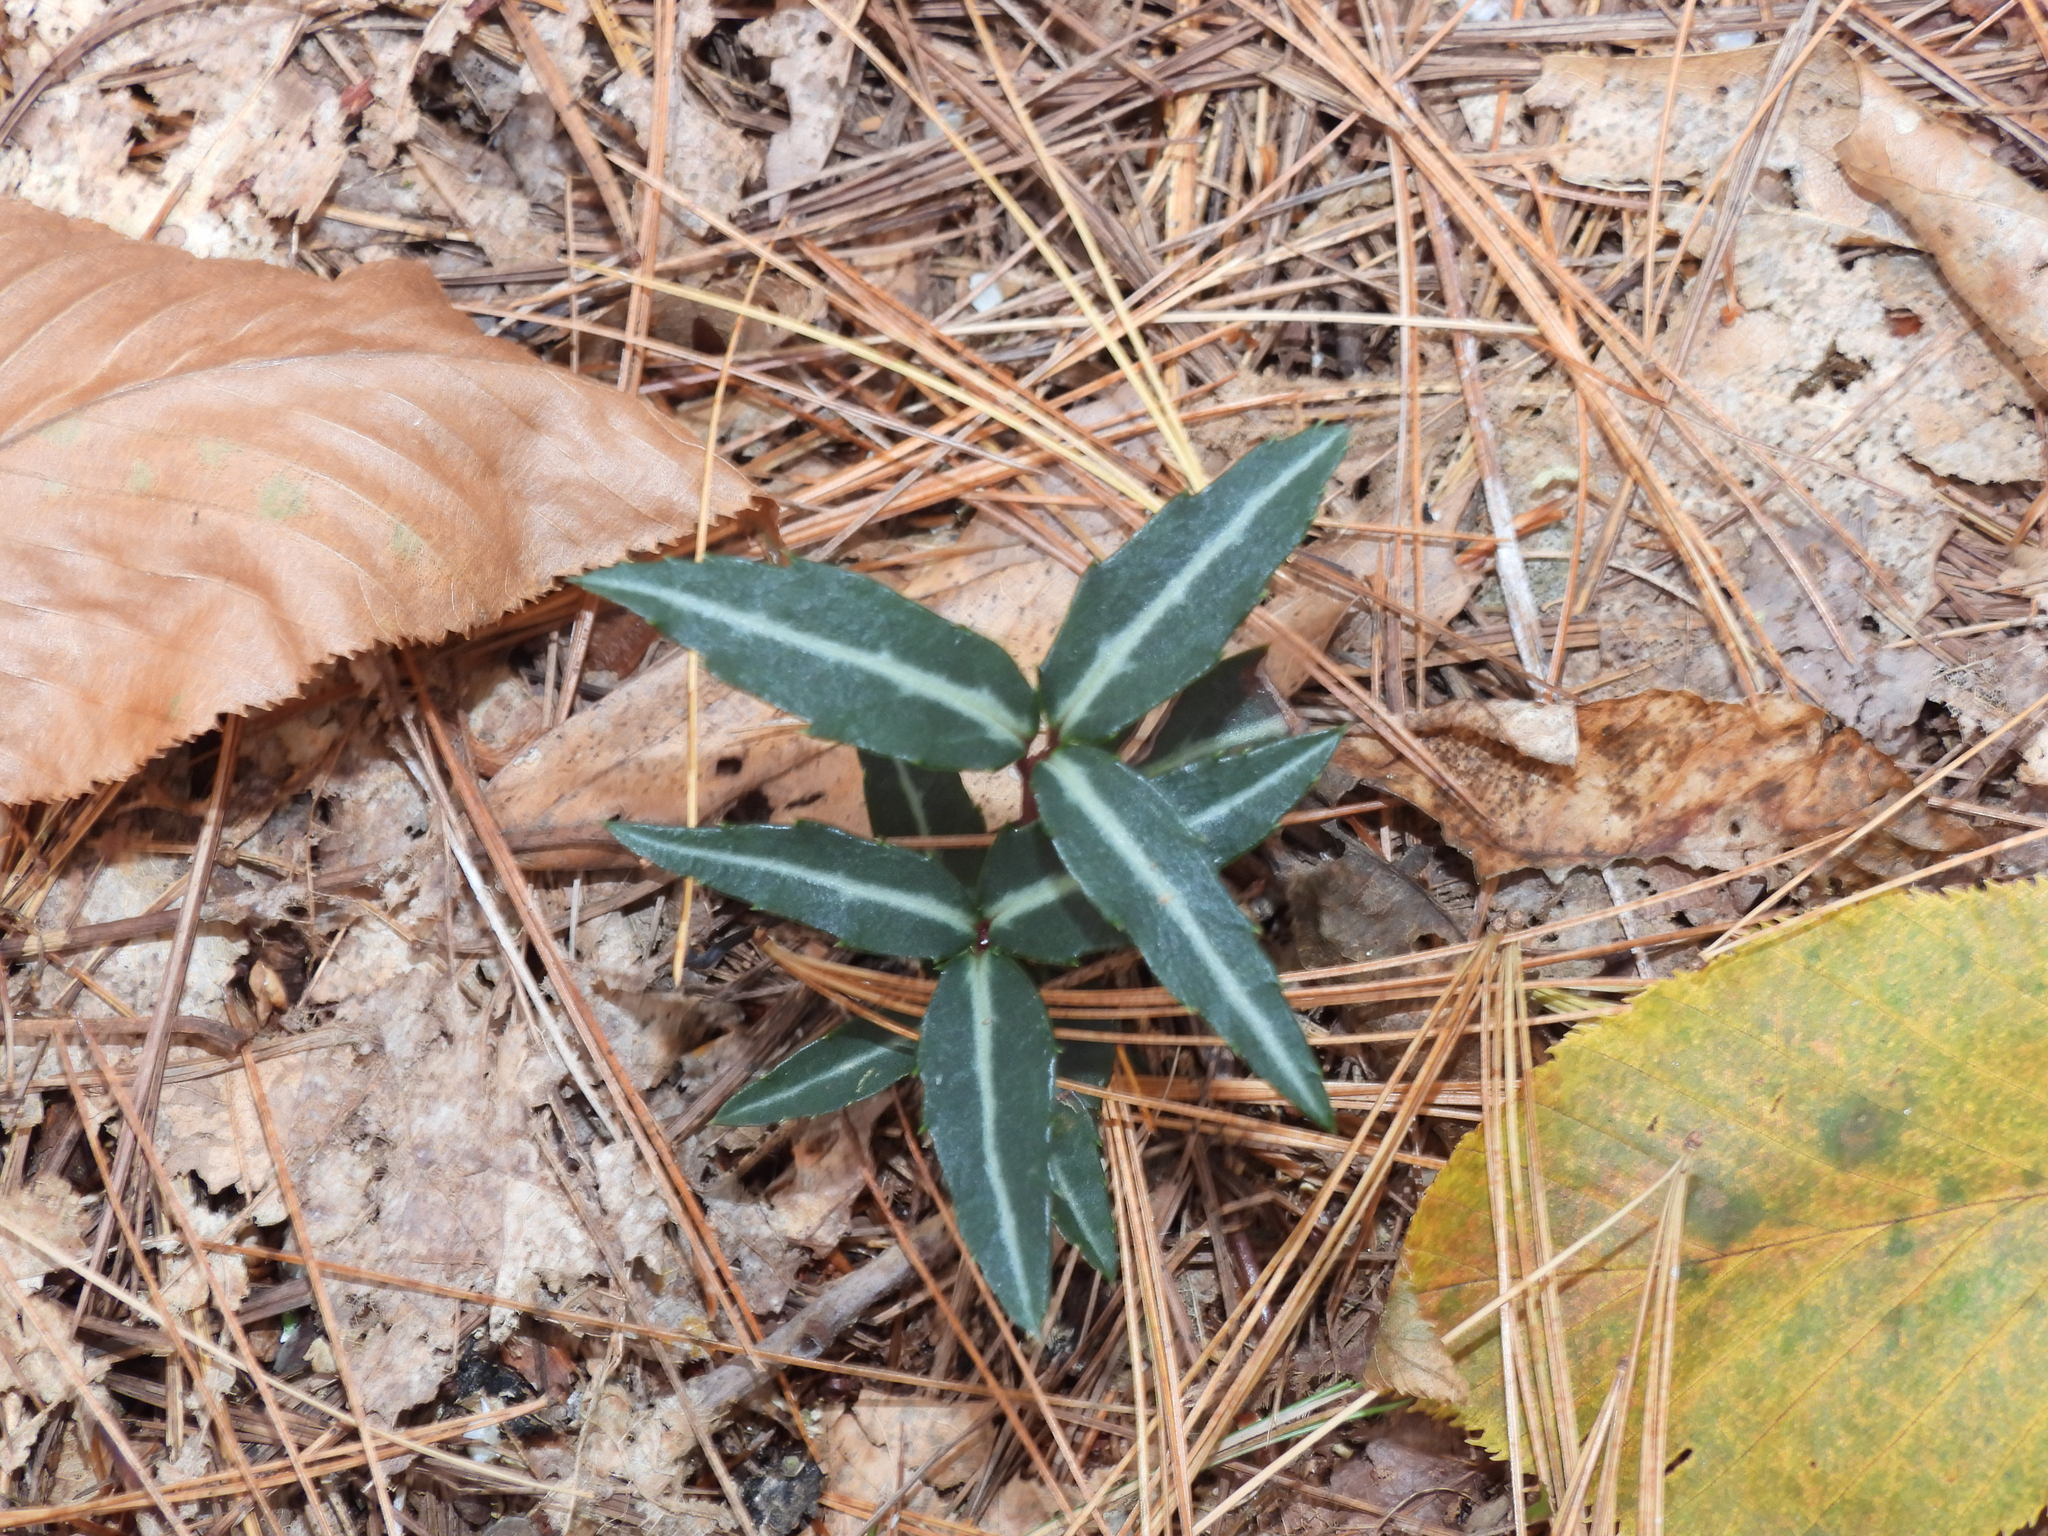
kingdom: Plantae
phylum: Tracheophyta
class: Magnoliopsida
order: Ericales
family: Ericaceae
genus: Chimaphila
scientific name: Chimaphila maculata
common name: Spotted pipsissewa
